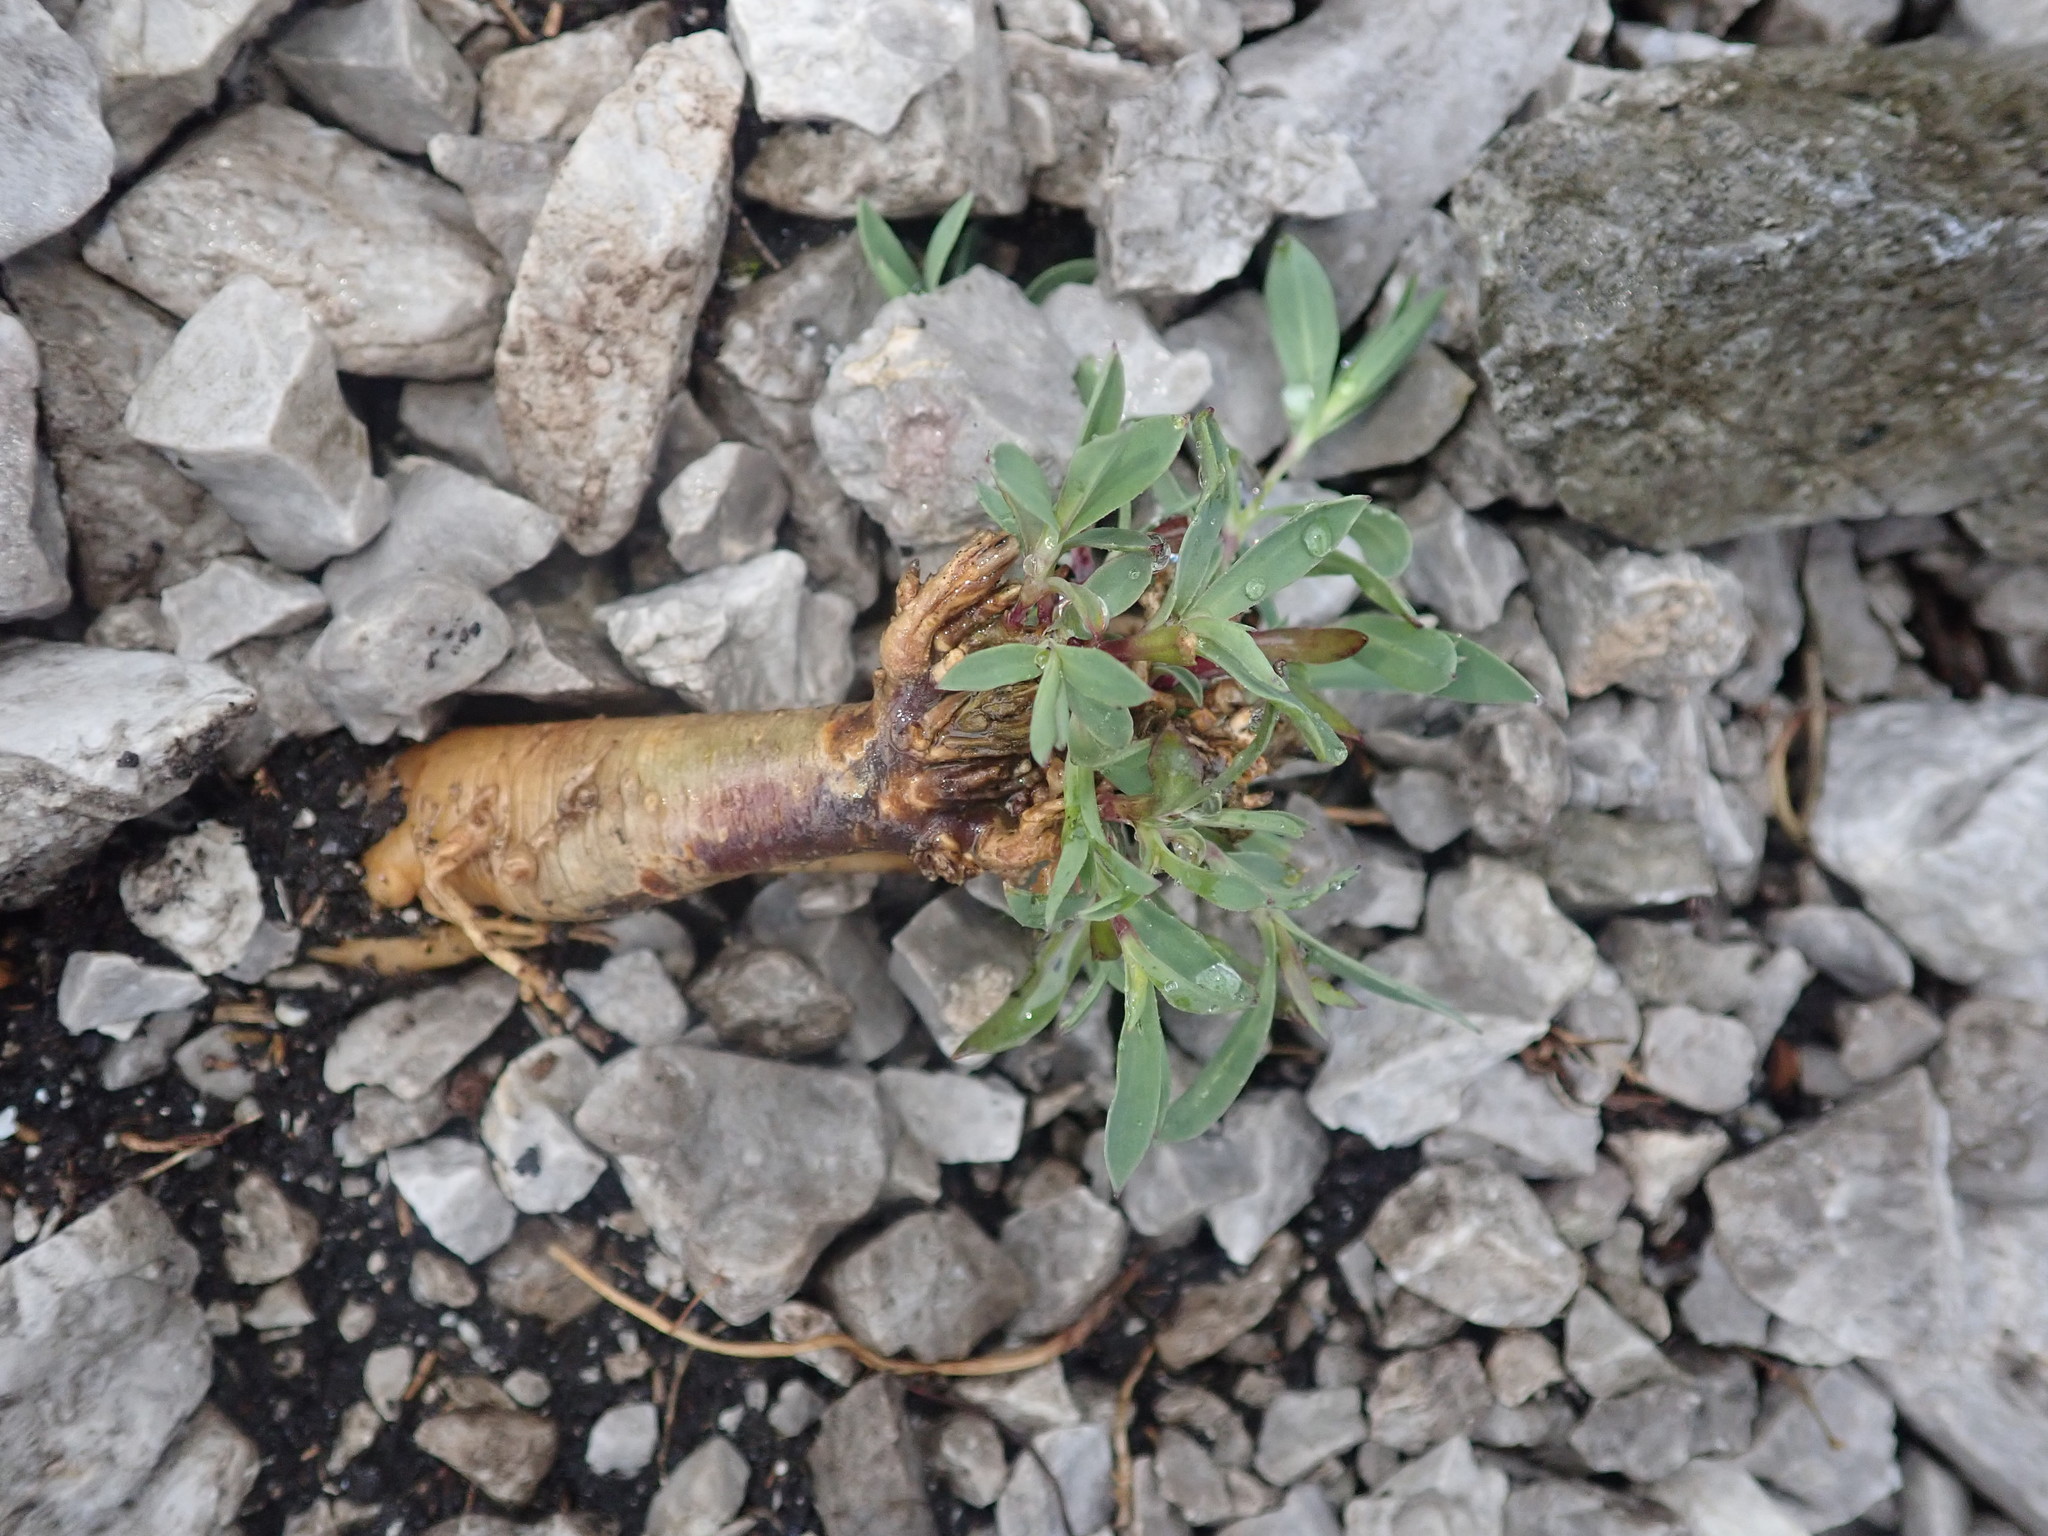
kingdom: Plantae
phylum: Tracheophyta
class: Magnoliopsida
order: Caryophyllales
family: Caryophyllaceae
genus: Silene
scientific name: Silene glareosa
